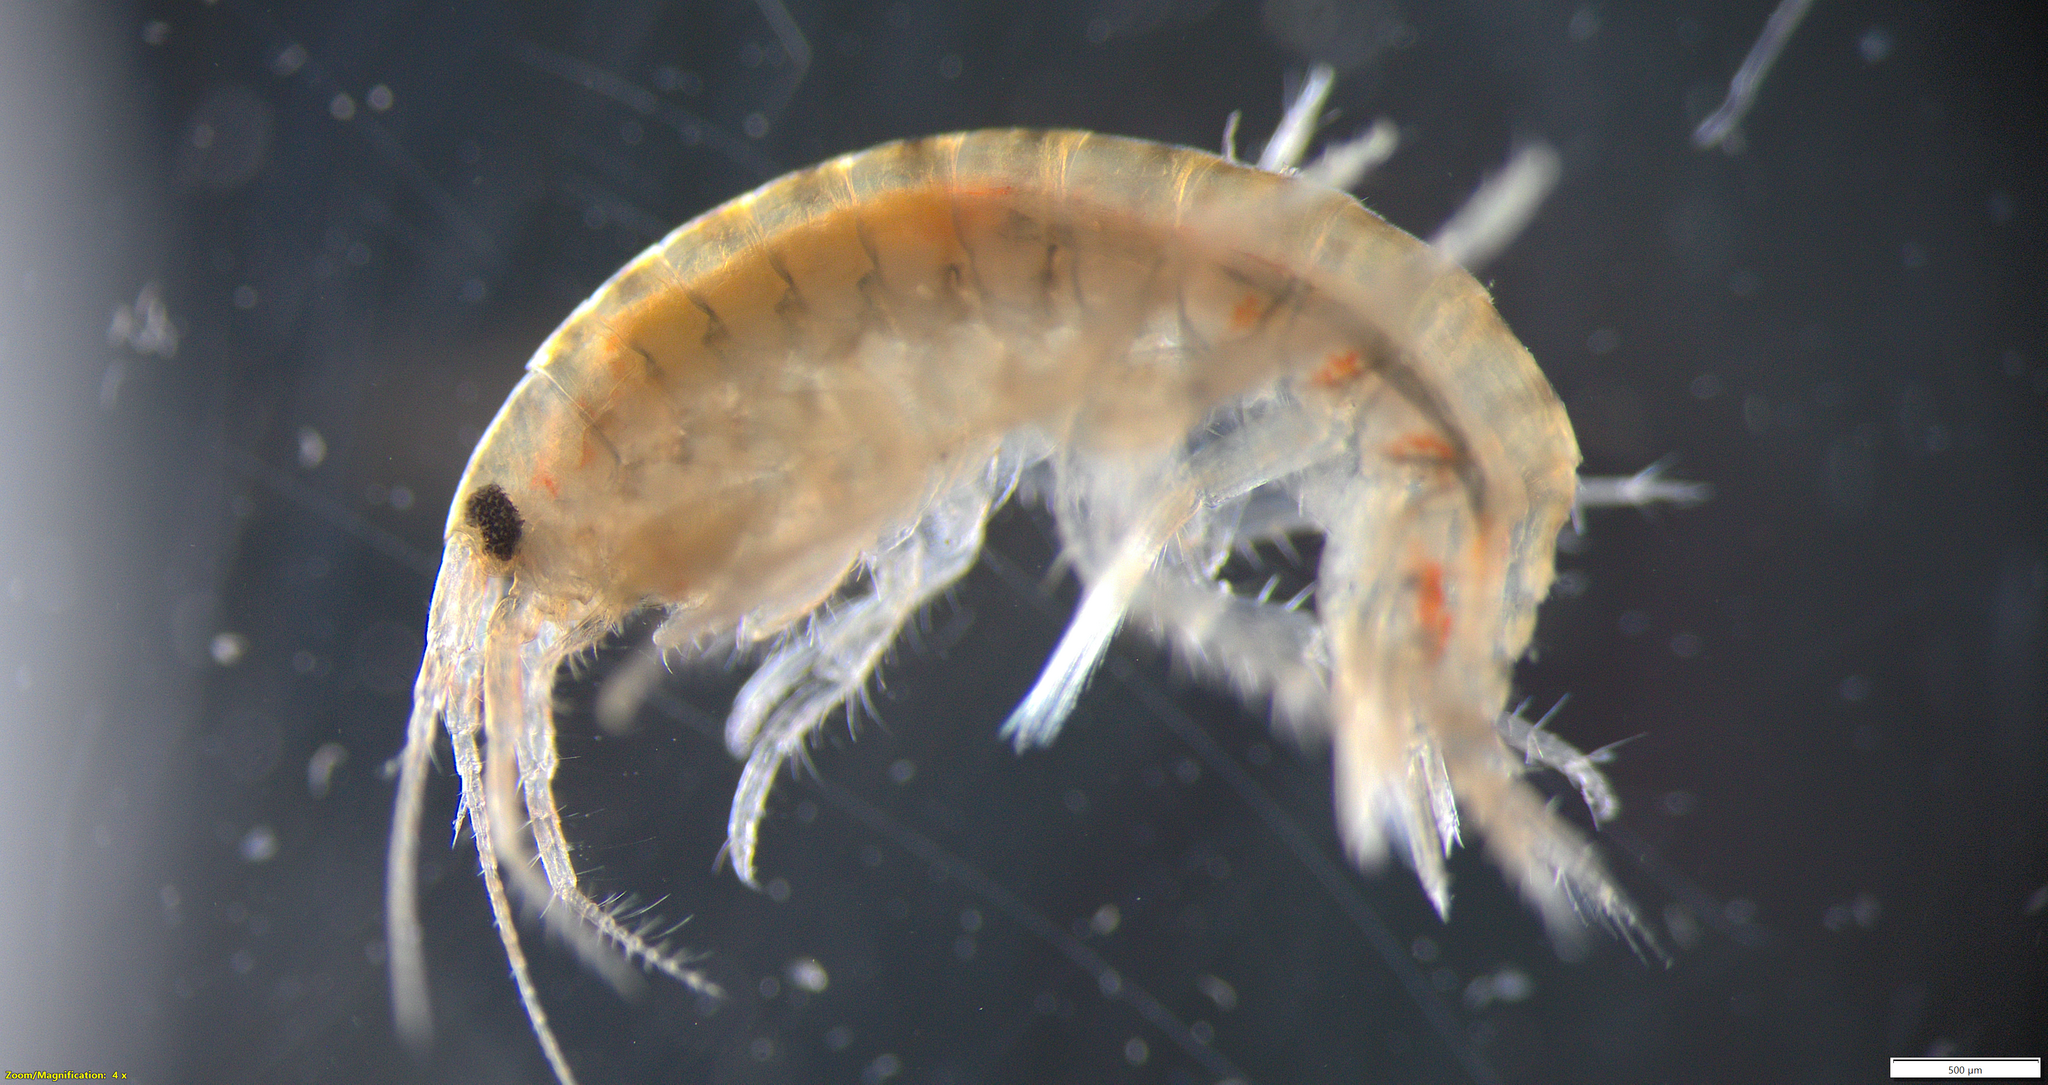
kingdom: Animalia
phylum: Arthropoda
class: Malacostraca
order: Amphipoda
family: Gammaridae
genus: Gammarus
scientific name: Gammarus tigrinus
